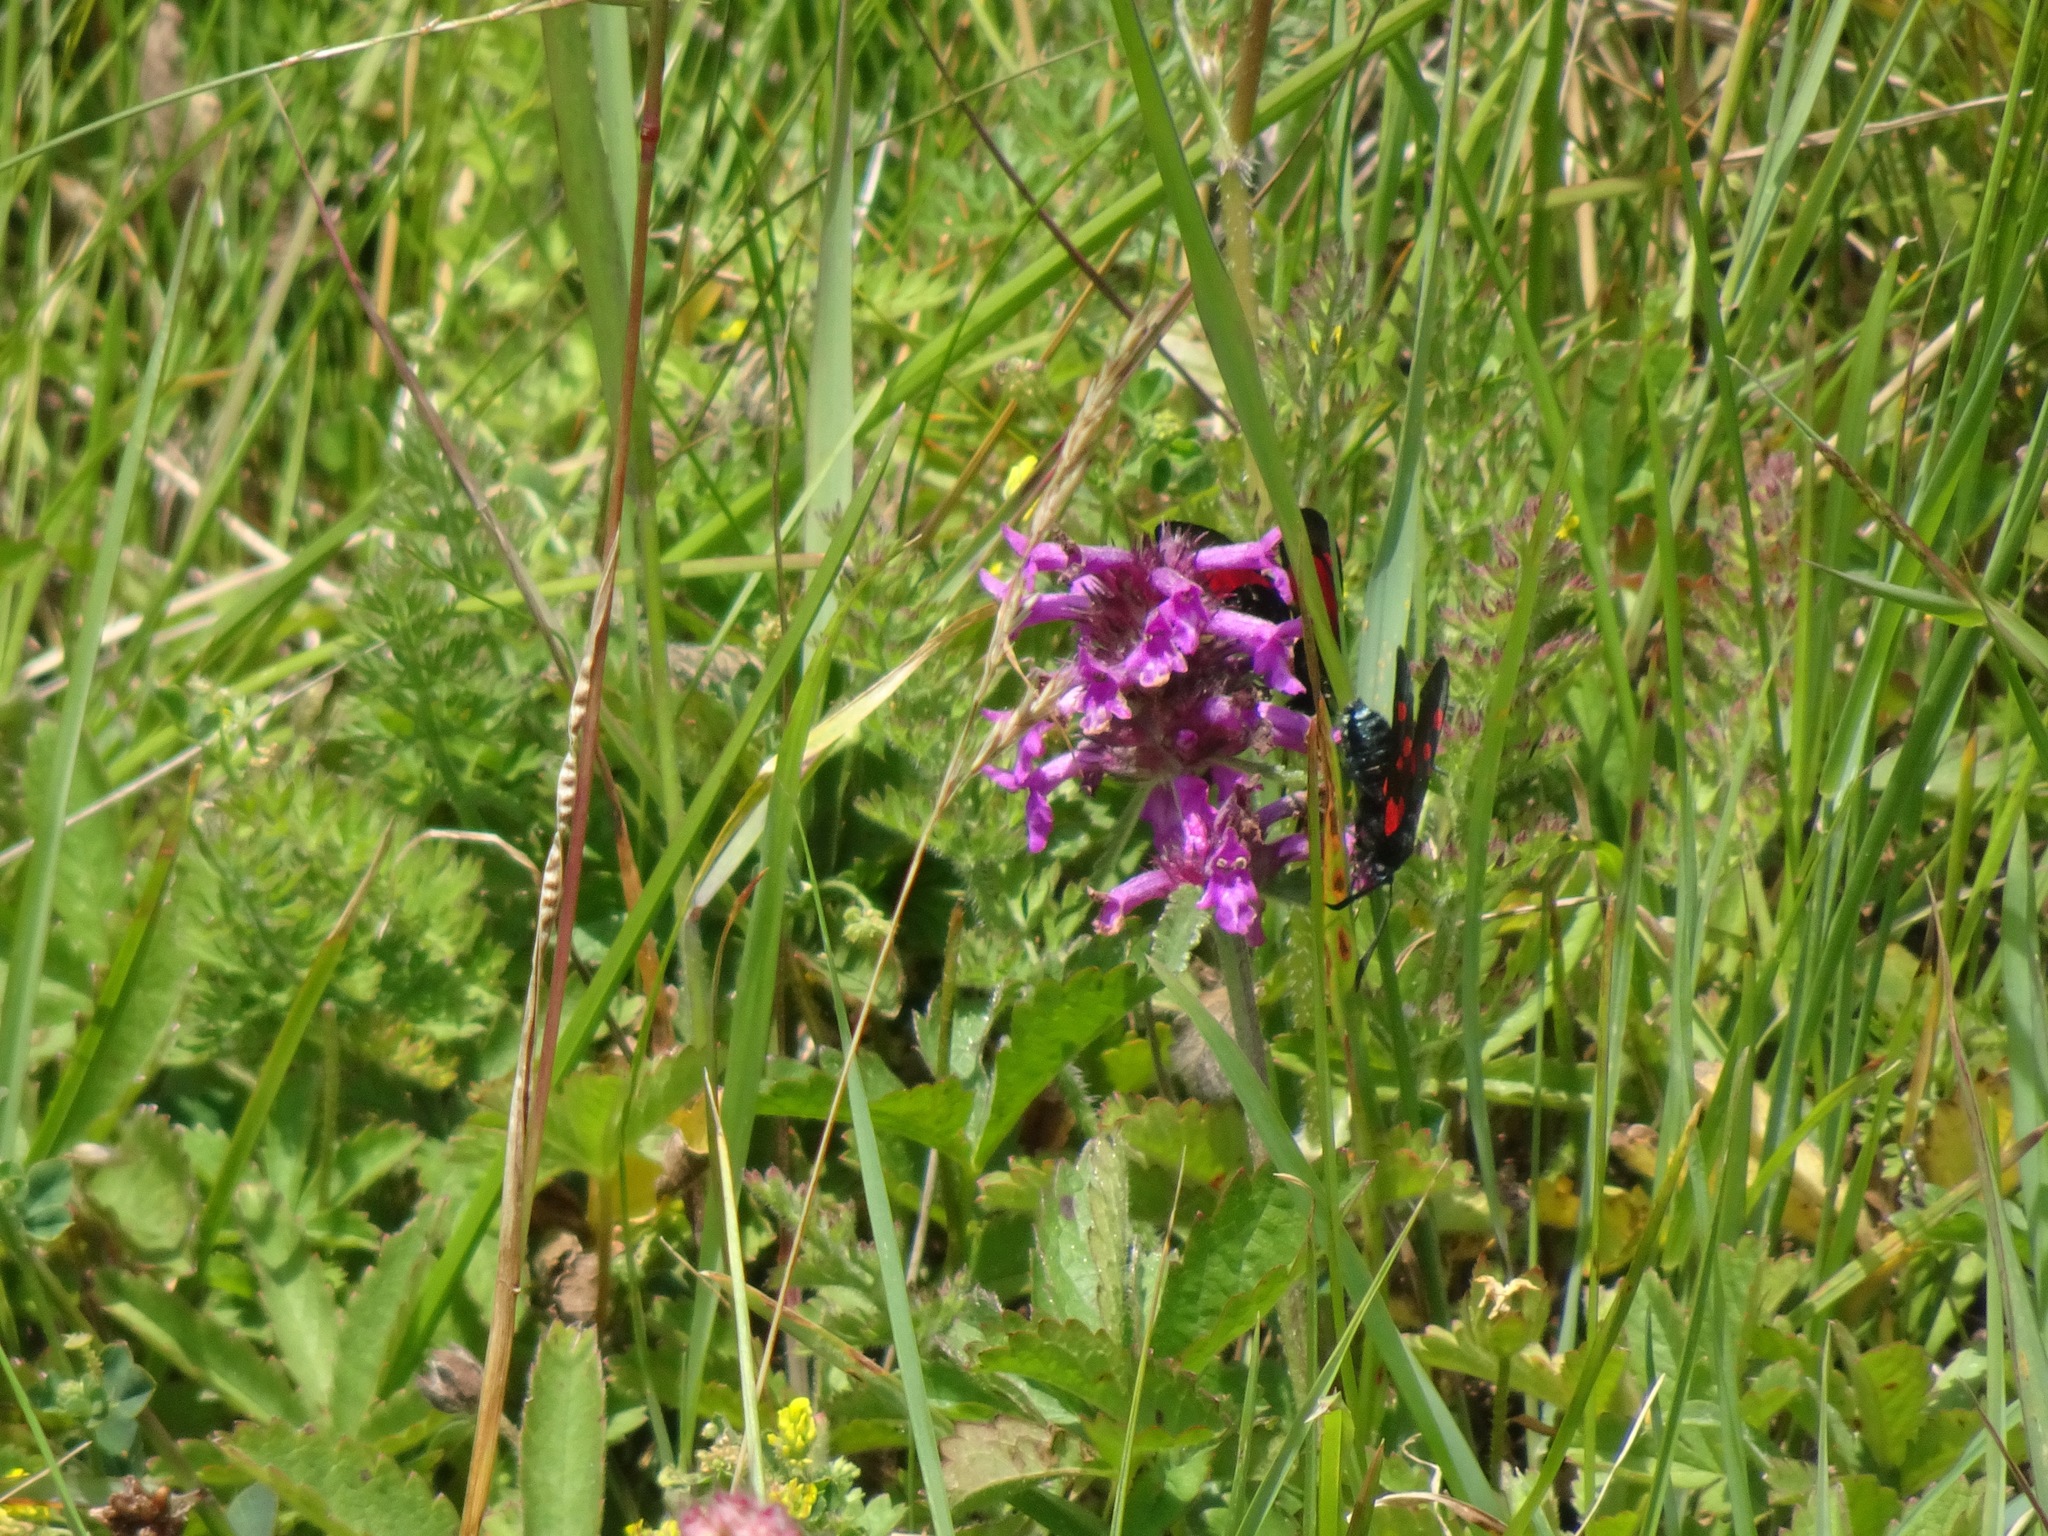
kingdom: Plantae
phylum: Tracheophyta
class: Magnoliopsida
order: Lamiales
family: Lamiaceae
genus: Betonica
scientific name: Betonica officinalis
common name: Bishop's-wort
